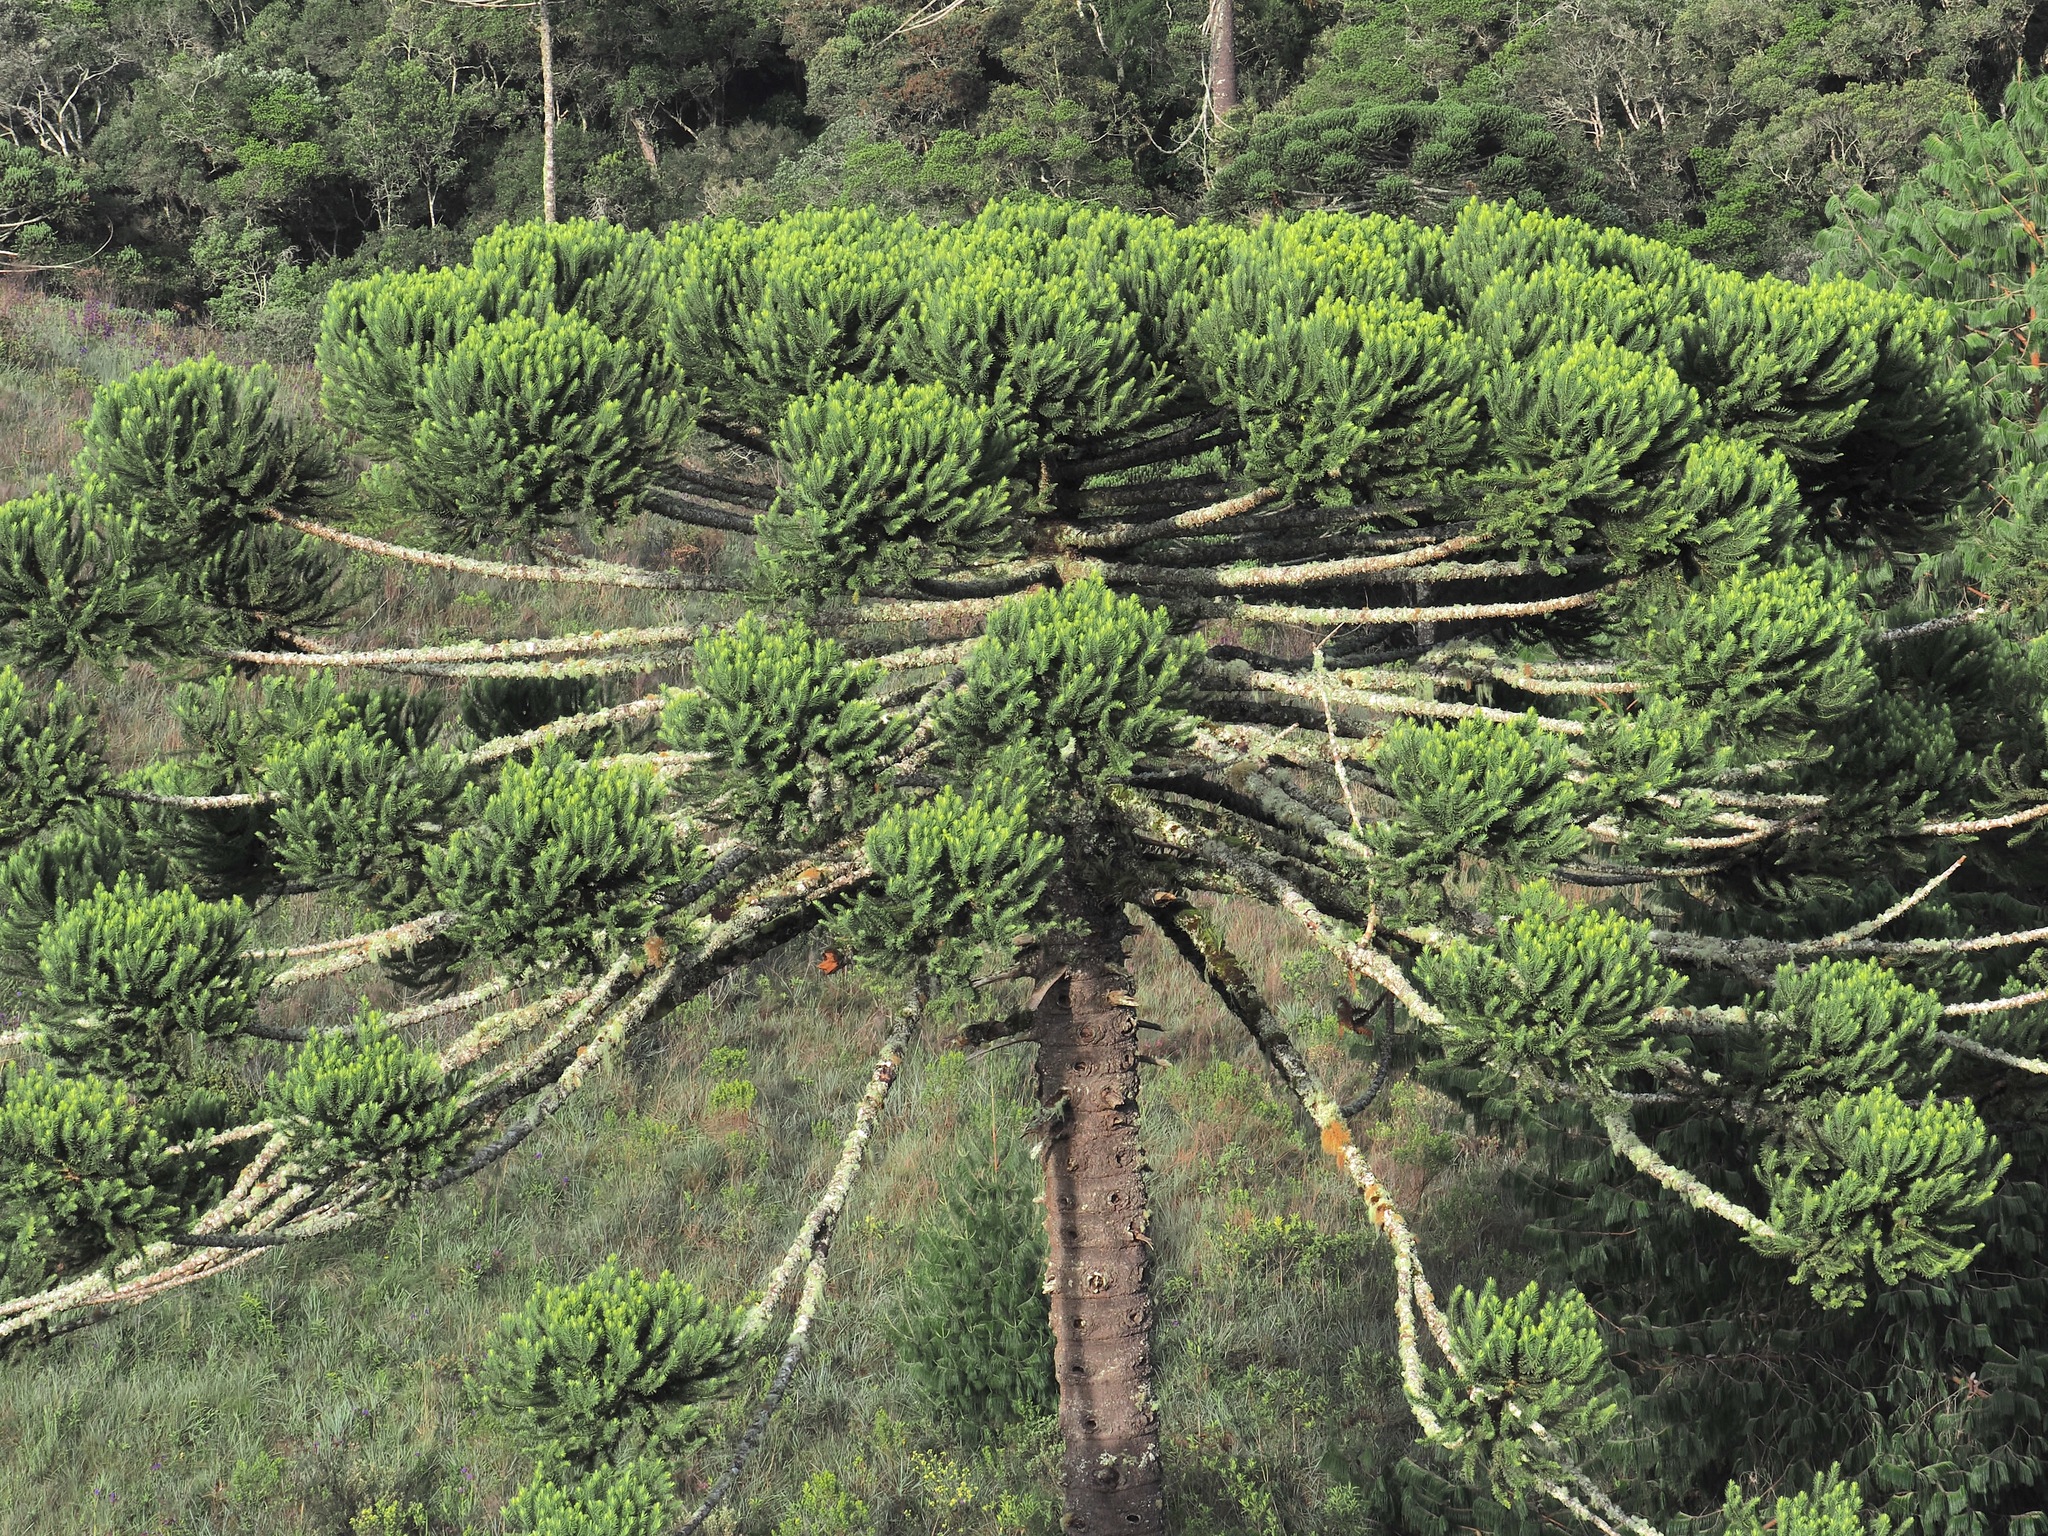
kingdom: Plantae
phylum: Tracheophyta
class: Pinopsida
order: Pinales
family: Araucariaceae
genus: Araucaria
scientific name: Araucaria angustifolia
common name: Candelabra tree
